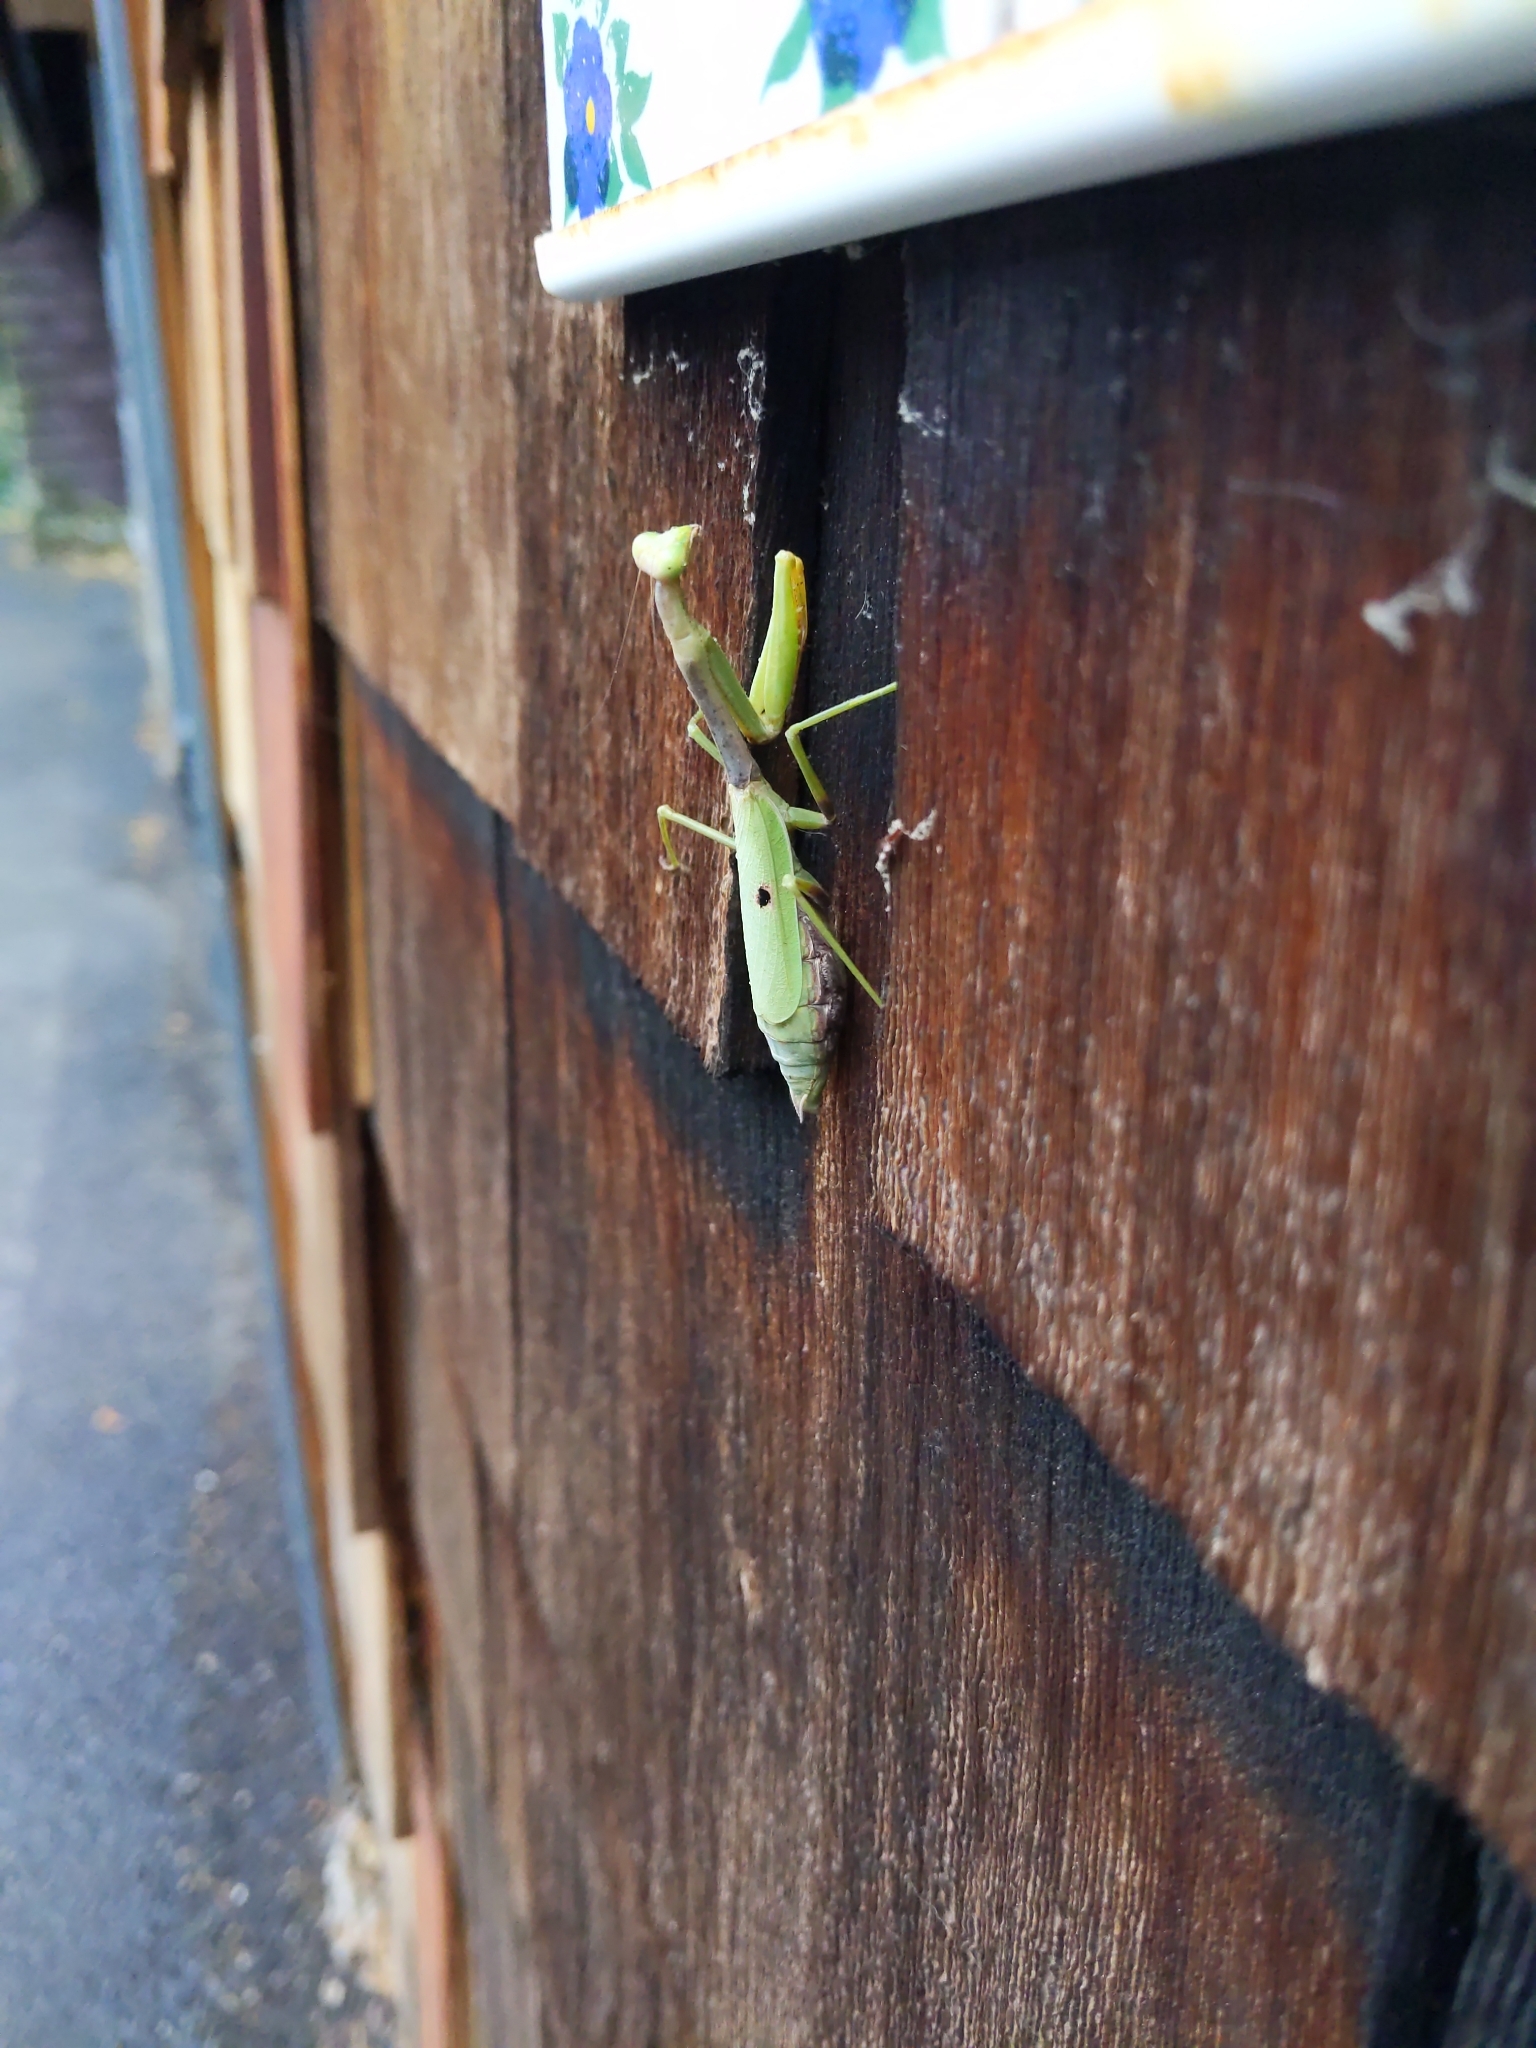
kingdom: Animalia
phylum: Arthropoda
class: Insecta
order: Mantodea
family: Mantidae
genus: Stagmomantis
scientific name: Stagmomantis carolina
